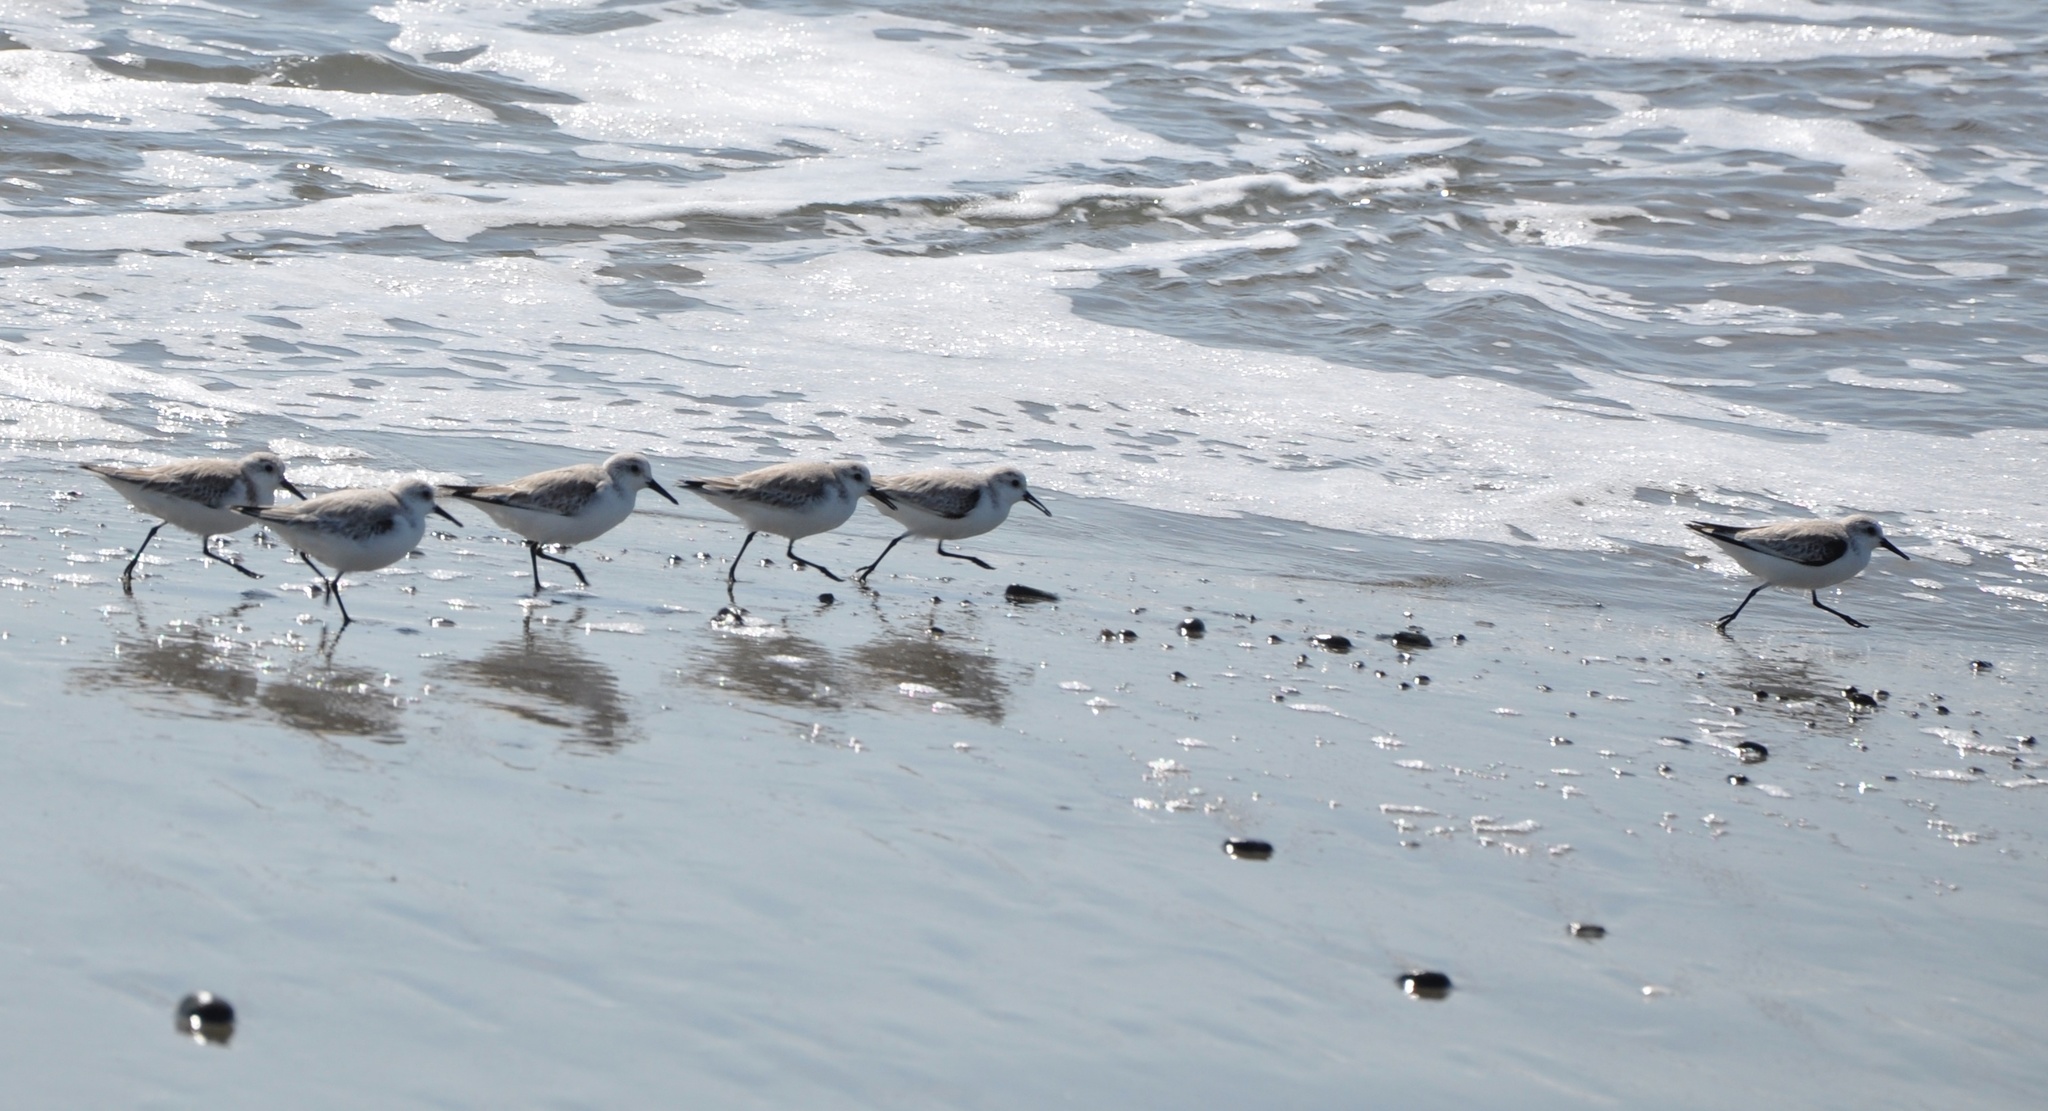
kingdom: Animalia
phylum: Chordata
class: Aves
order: Charadriiformes
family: Scolopacidae
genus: Calidris
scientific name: Calidris alba
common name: Sanderling
